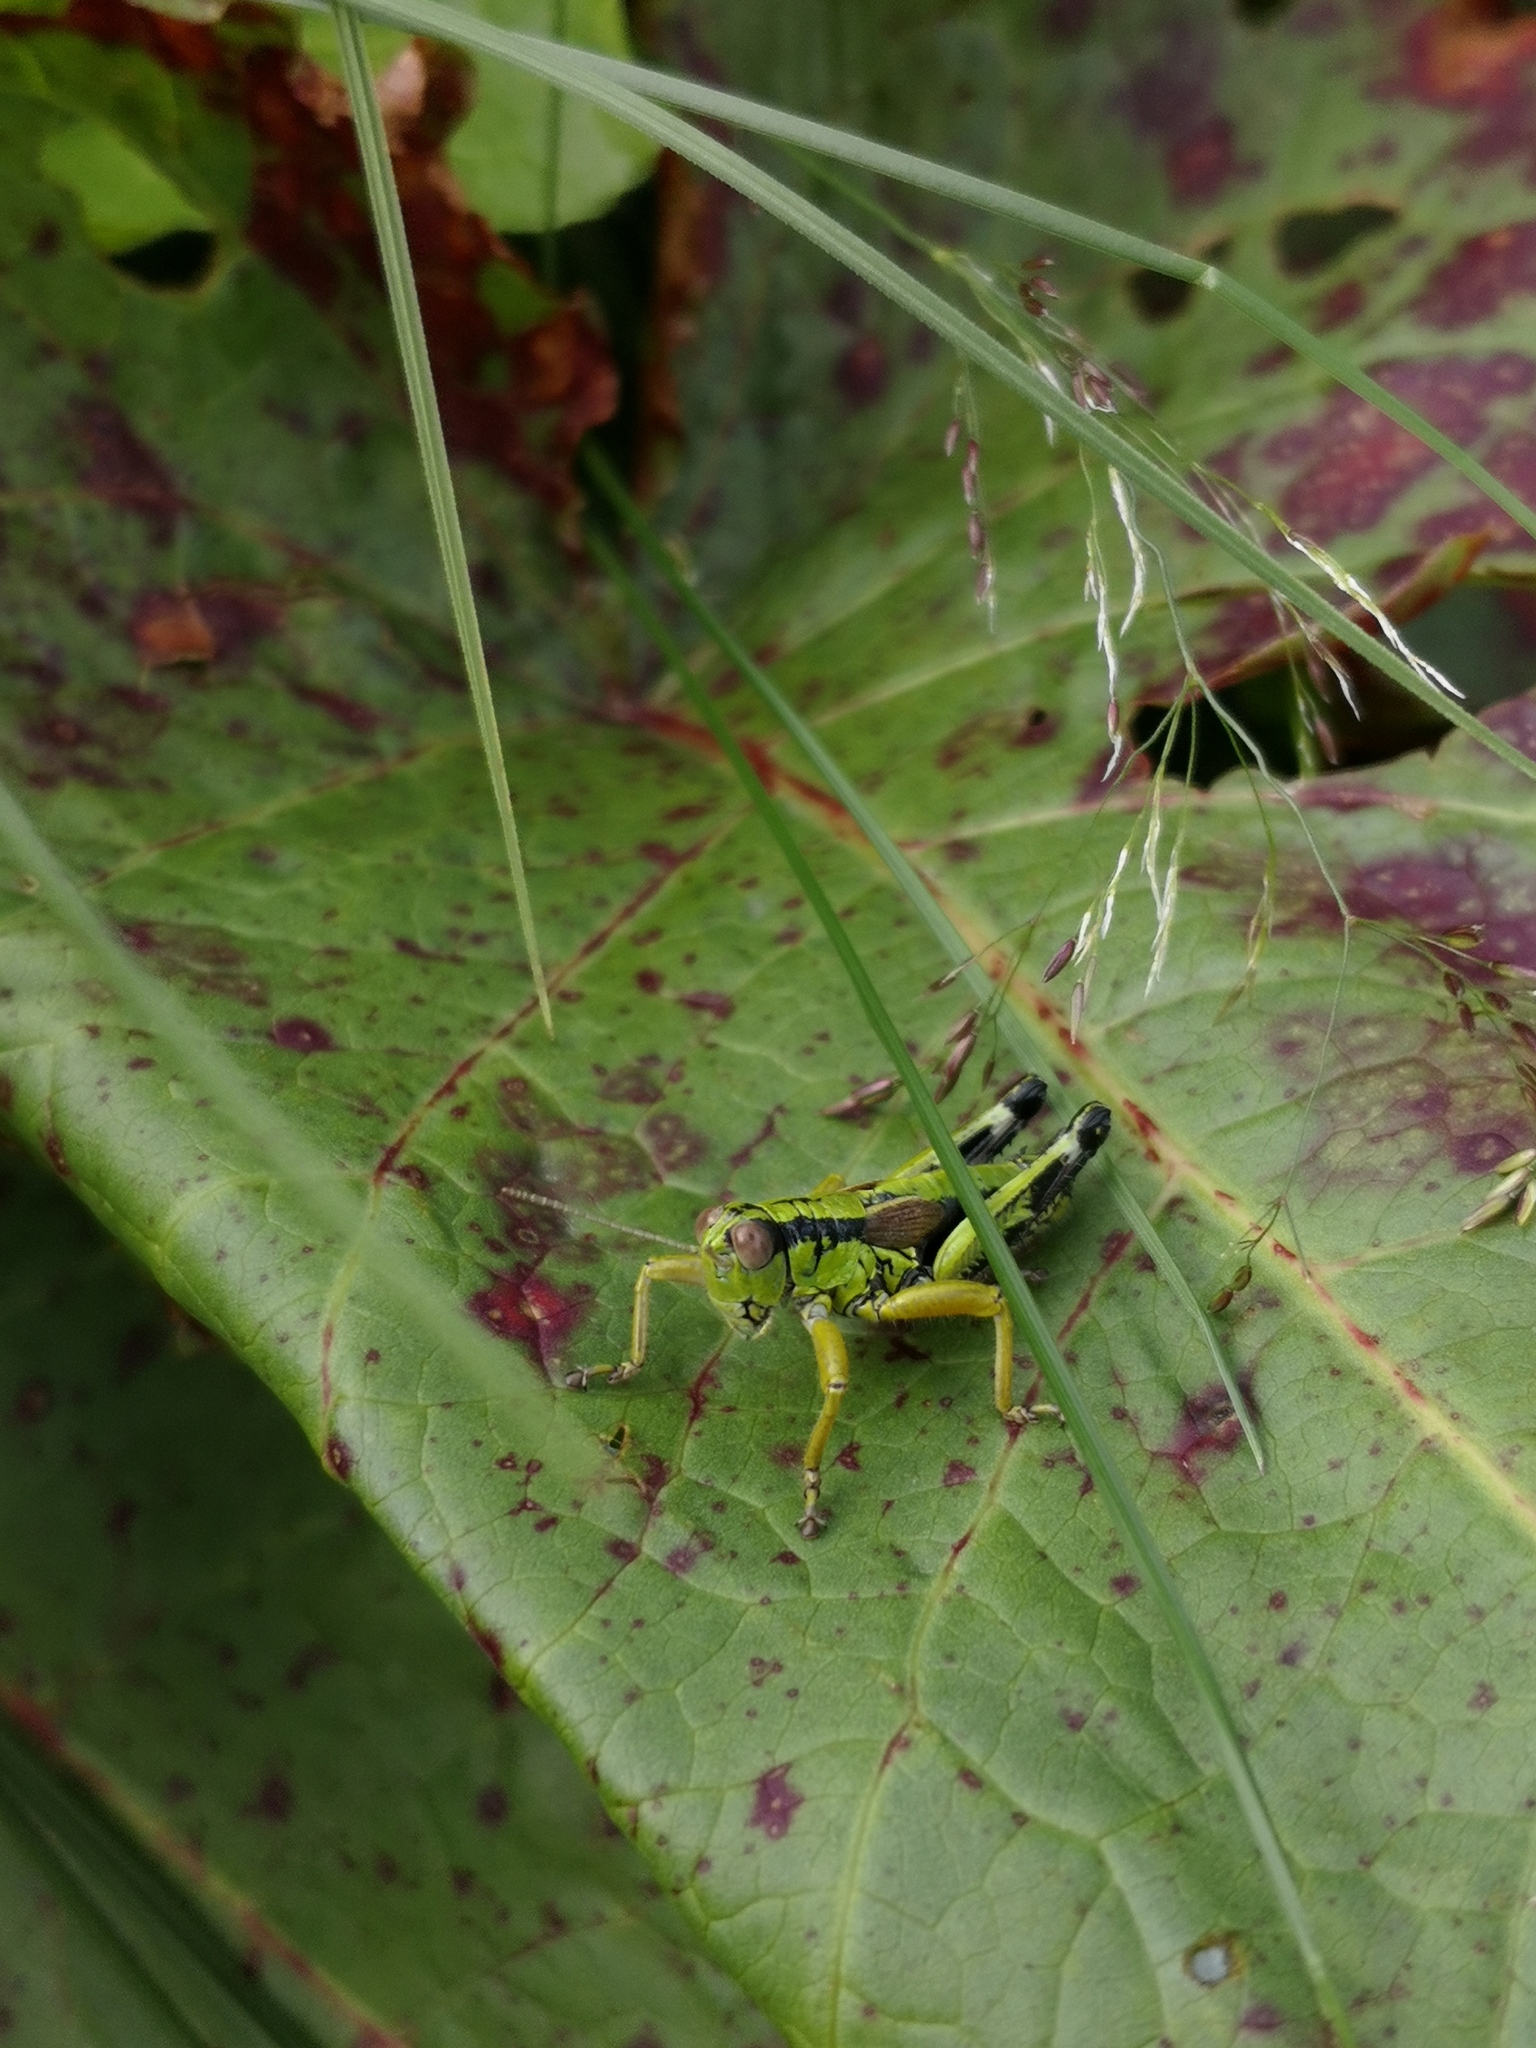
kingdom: Animalia
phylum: Arthropoda
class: Insecta
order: Orthoptera
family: Acrididae
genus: Miramella
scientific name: Miramella alpina
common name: Green mountain grasshopper
